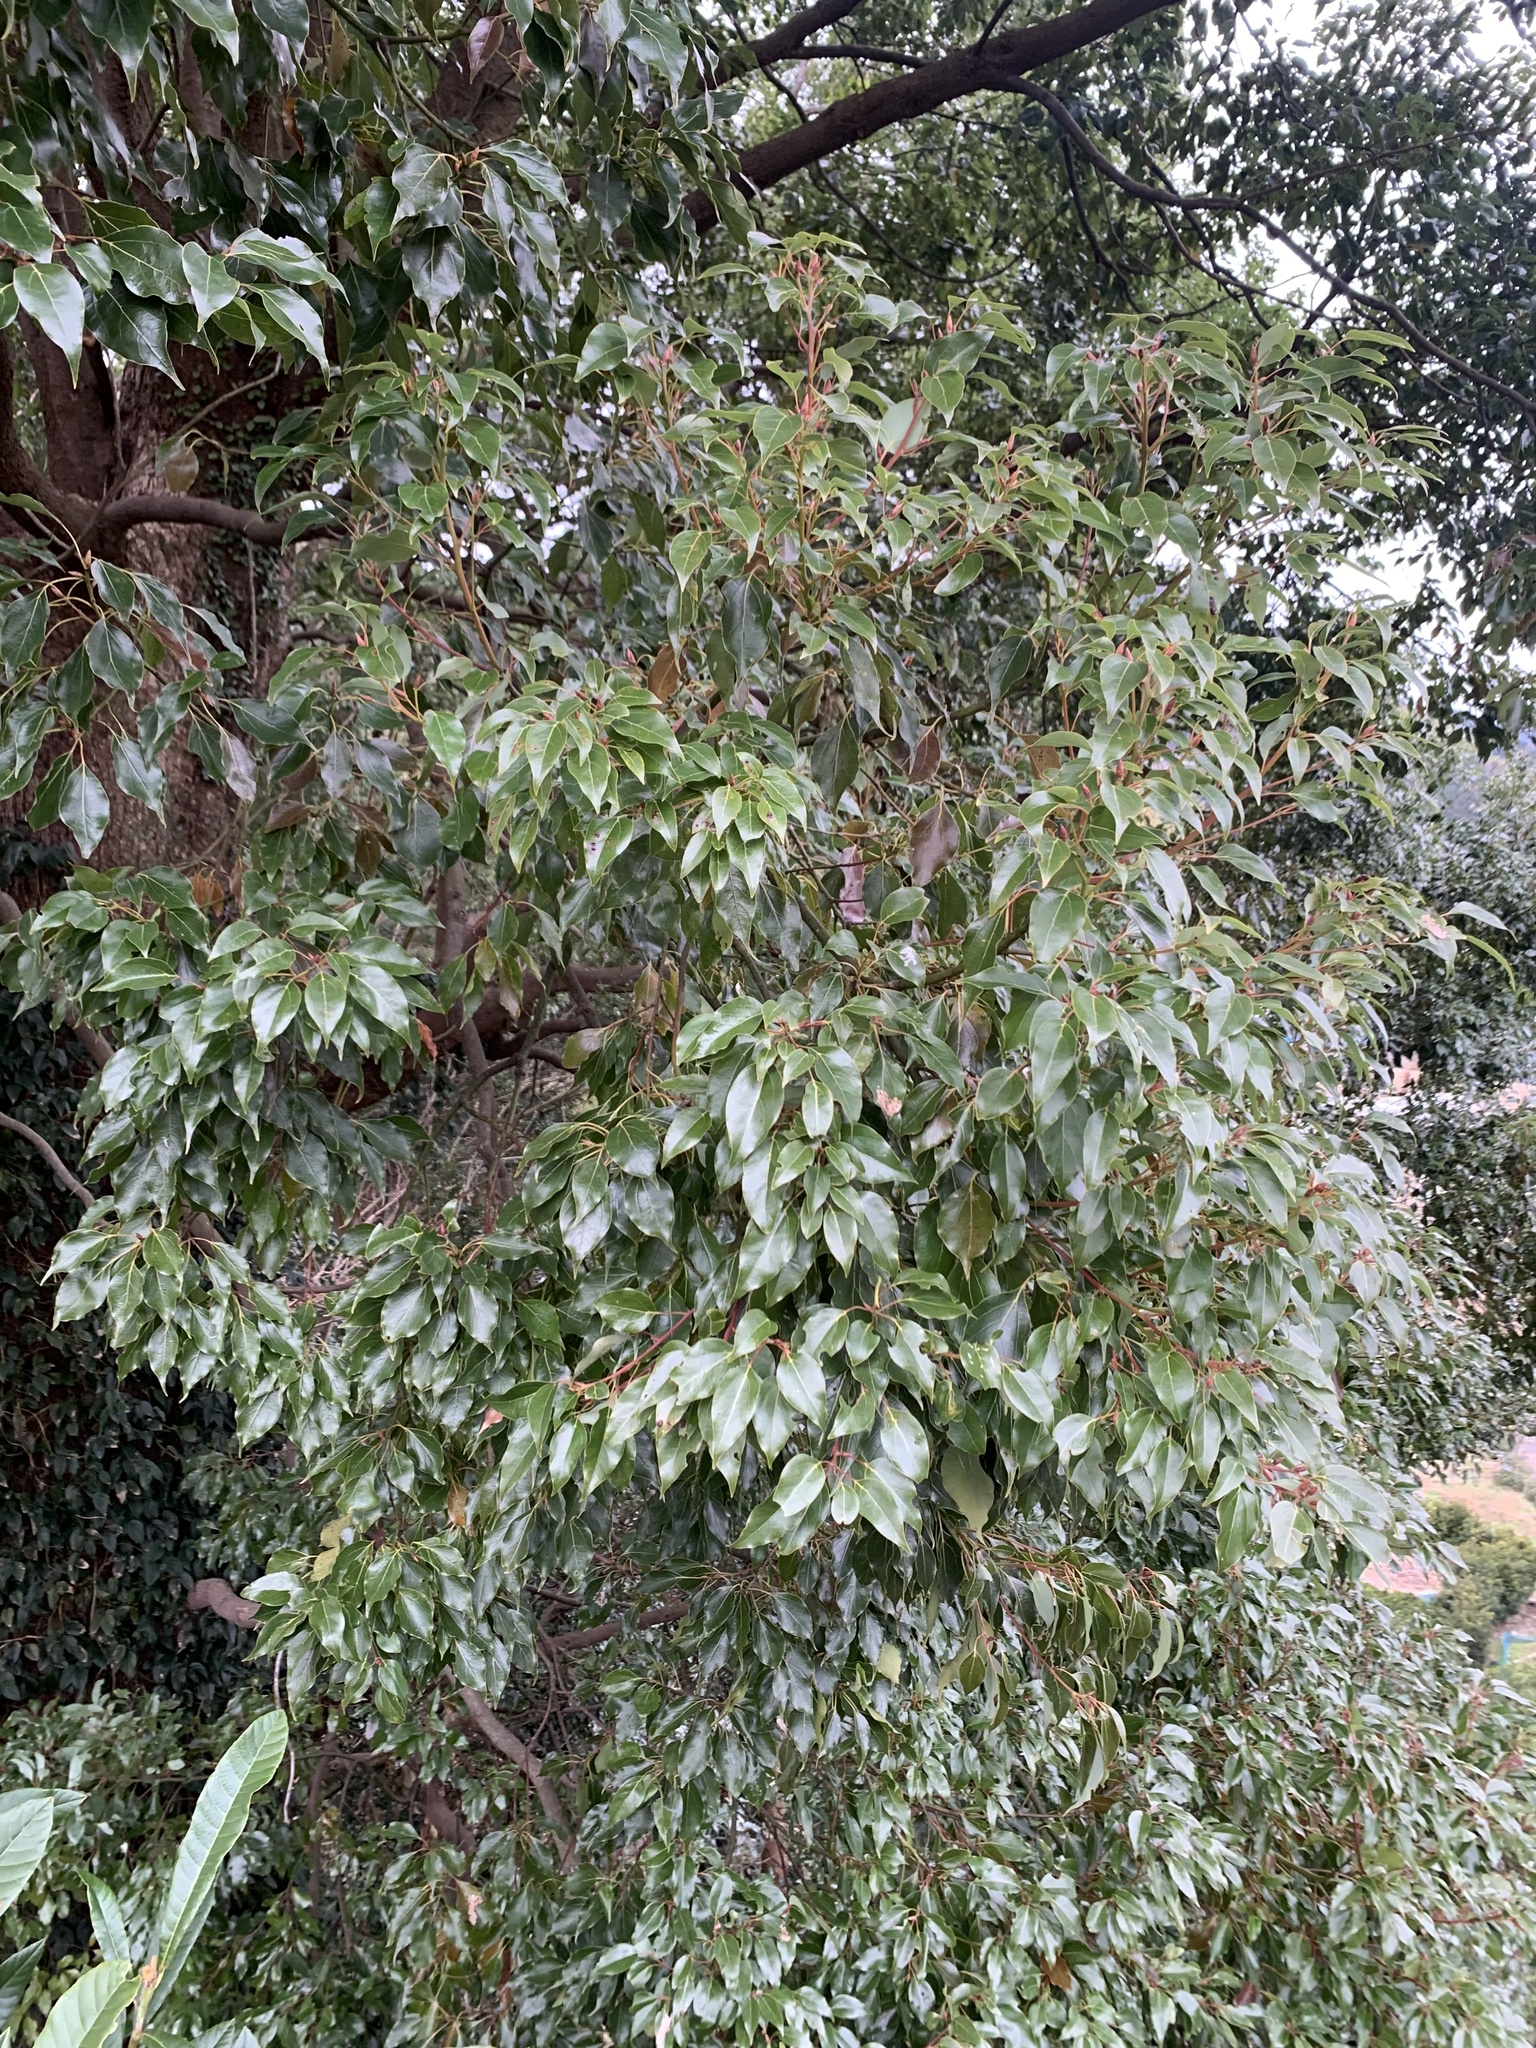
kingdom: Plantae
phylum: Tracheophyta
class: Magnoliopsida
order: Laurales
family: Lauraceae
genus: Cinnamomum
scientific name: Cinnamomum camphora
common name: Camphortree
